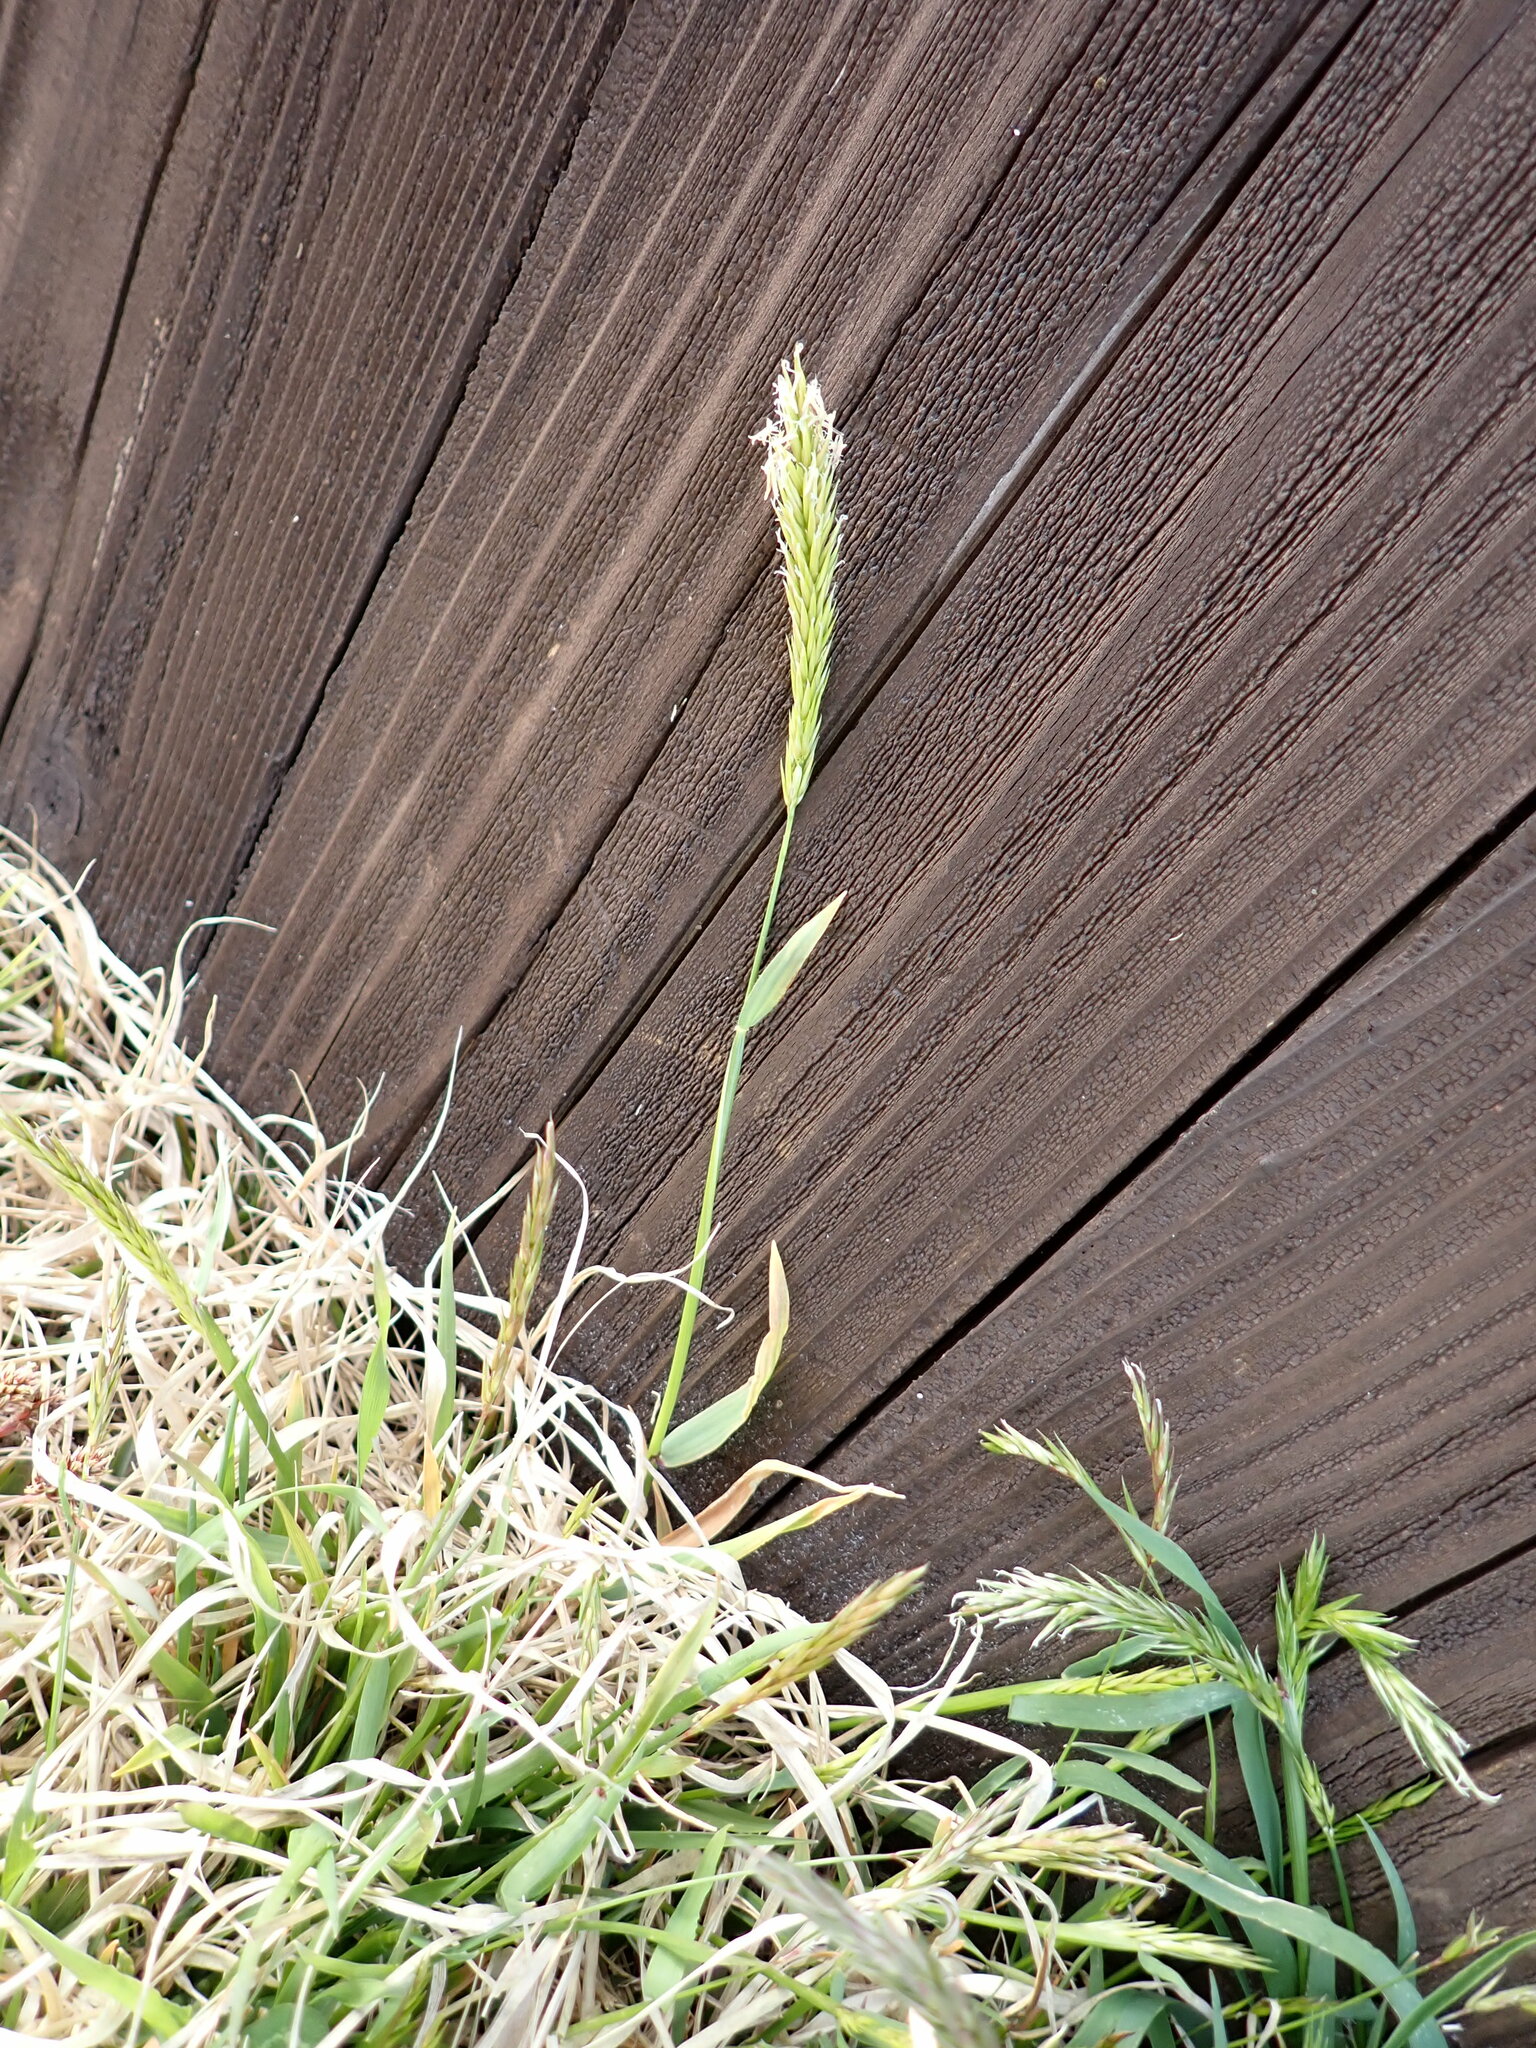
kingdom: Plantae
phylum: Tracheophyta
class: Liliopsida
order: Poales
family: Poaceae
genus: Anthoxanthum
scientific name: Anthoxanthum odoratum
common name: Sweet vernalgrass
